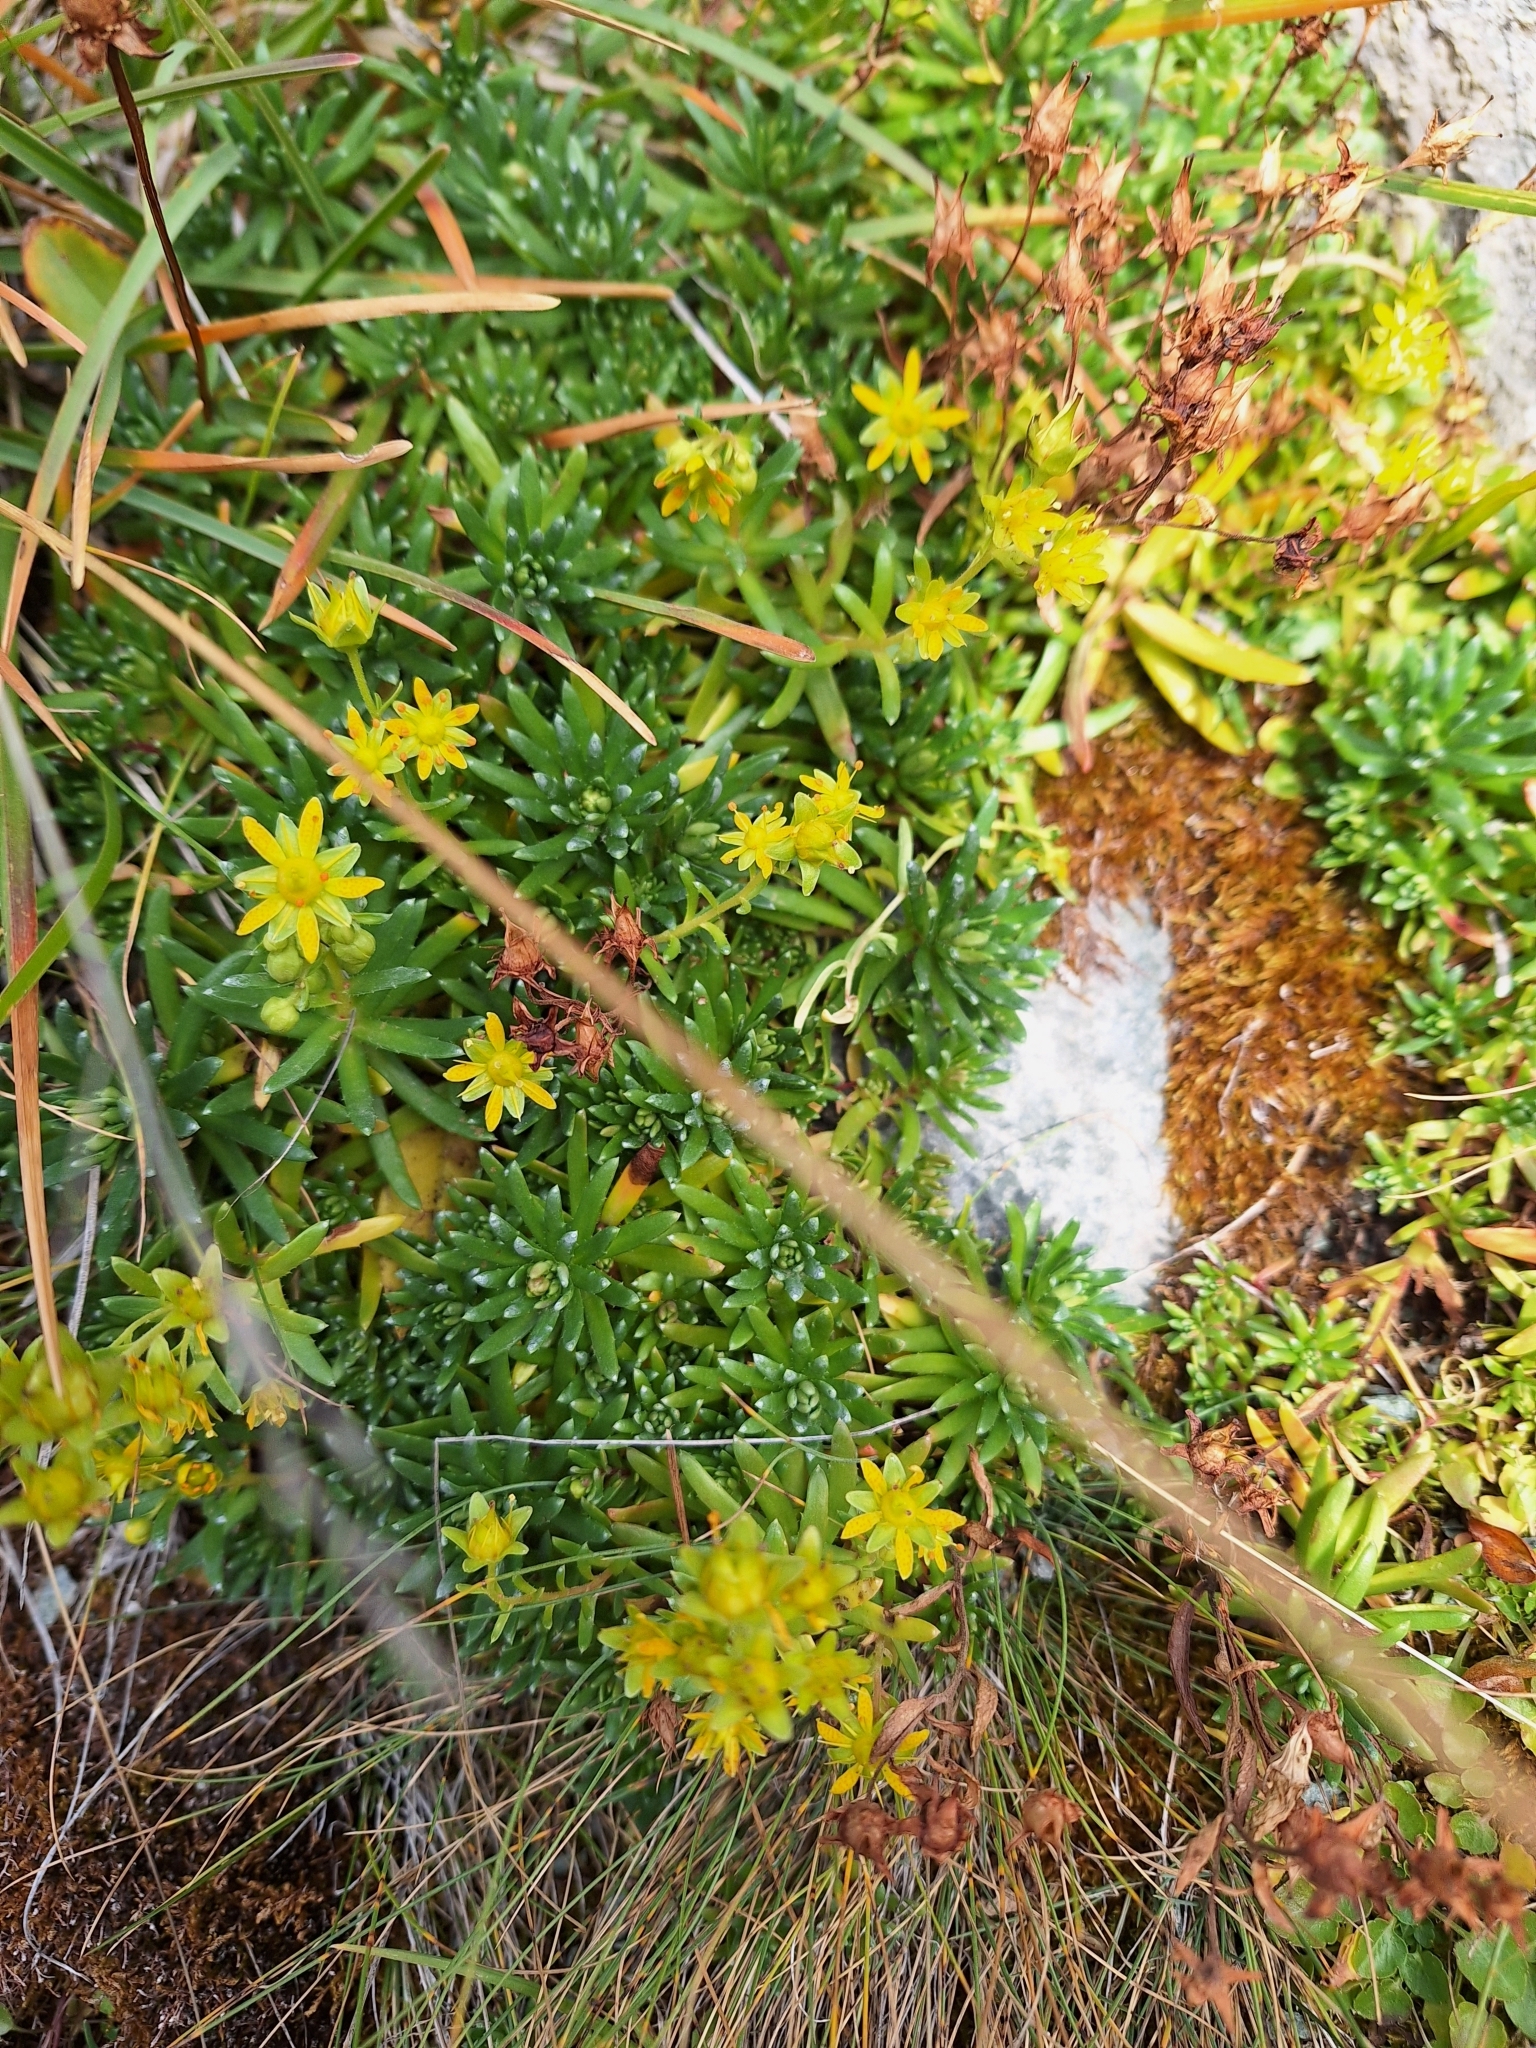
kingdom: Plantae
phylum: Tracheophyta
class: Magnoliopsida
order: Saxifragales
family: Saxifragaceae
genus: Saxifraga
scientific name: Saxifraga aizoides
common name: Yellow mountain saxifrage
